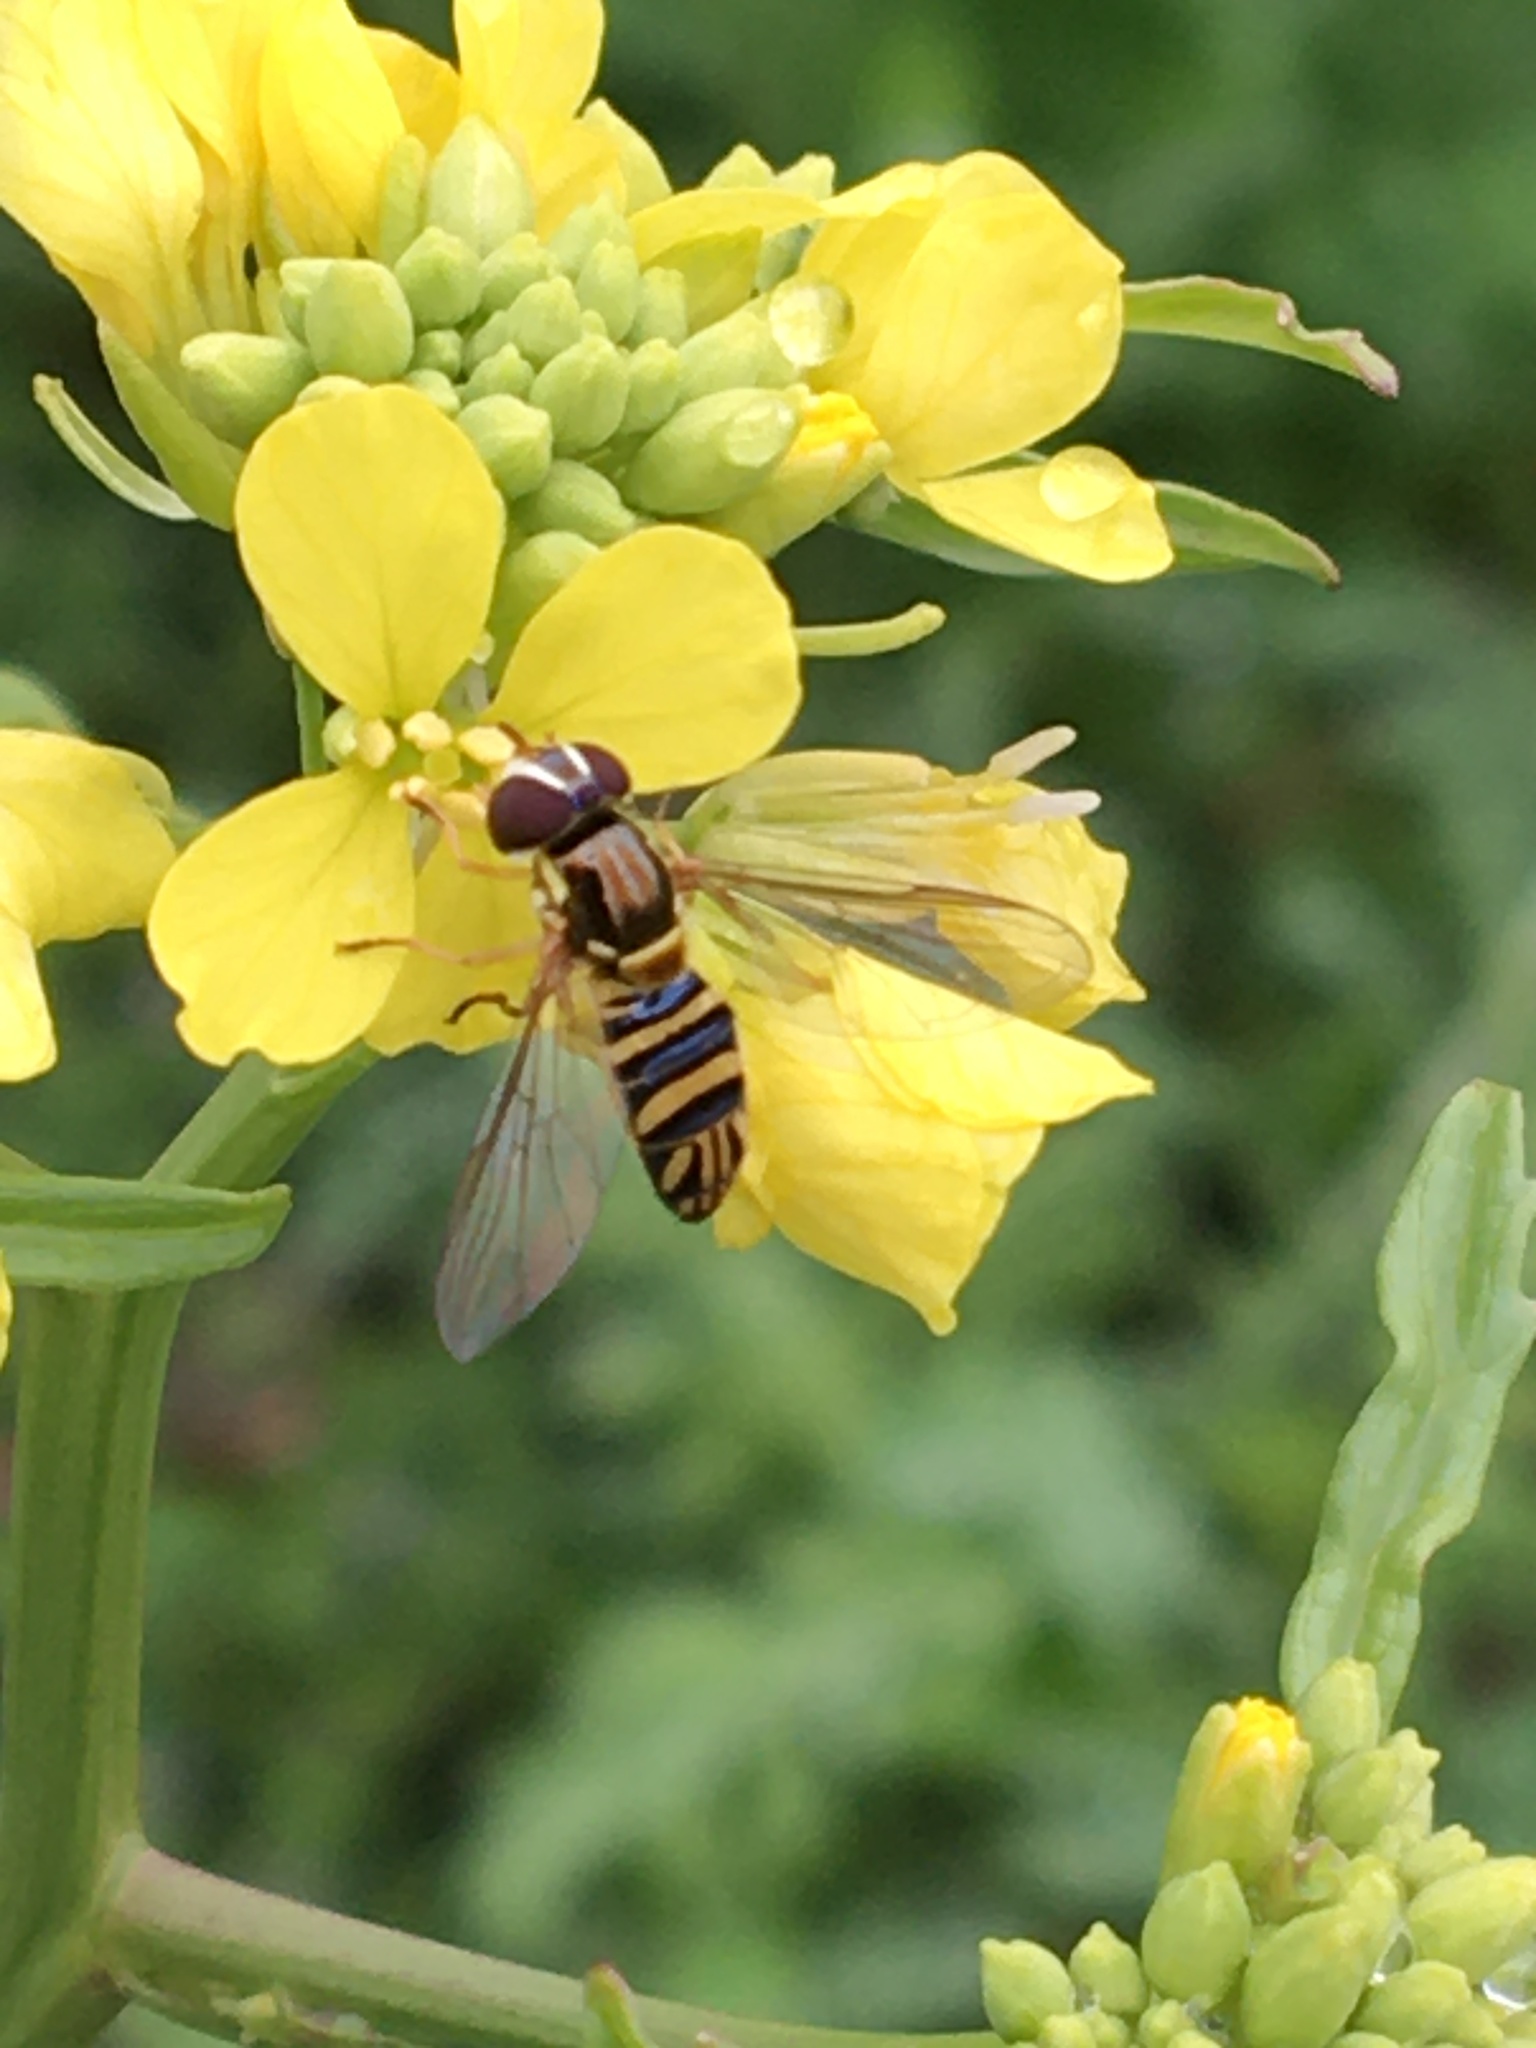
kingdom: Animalia
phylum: Arthropoda
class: Insecta
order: Diptera
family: Syrphidae
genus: Allograpta
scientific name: Allograpta obliqua
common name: Common oblique syrphid
